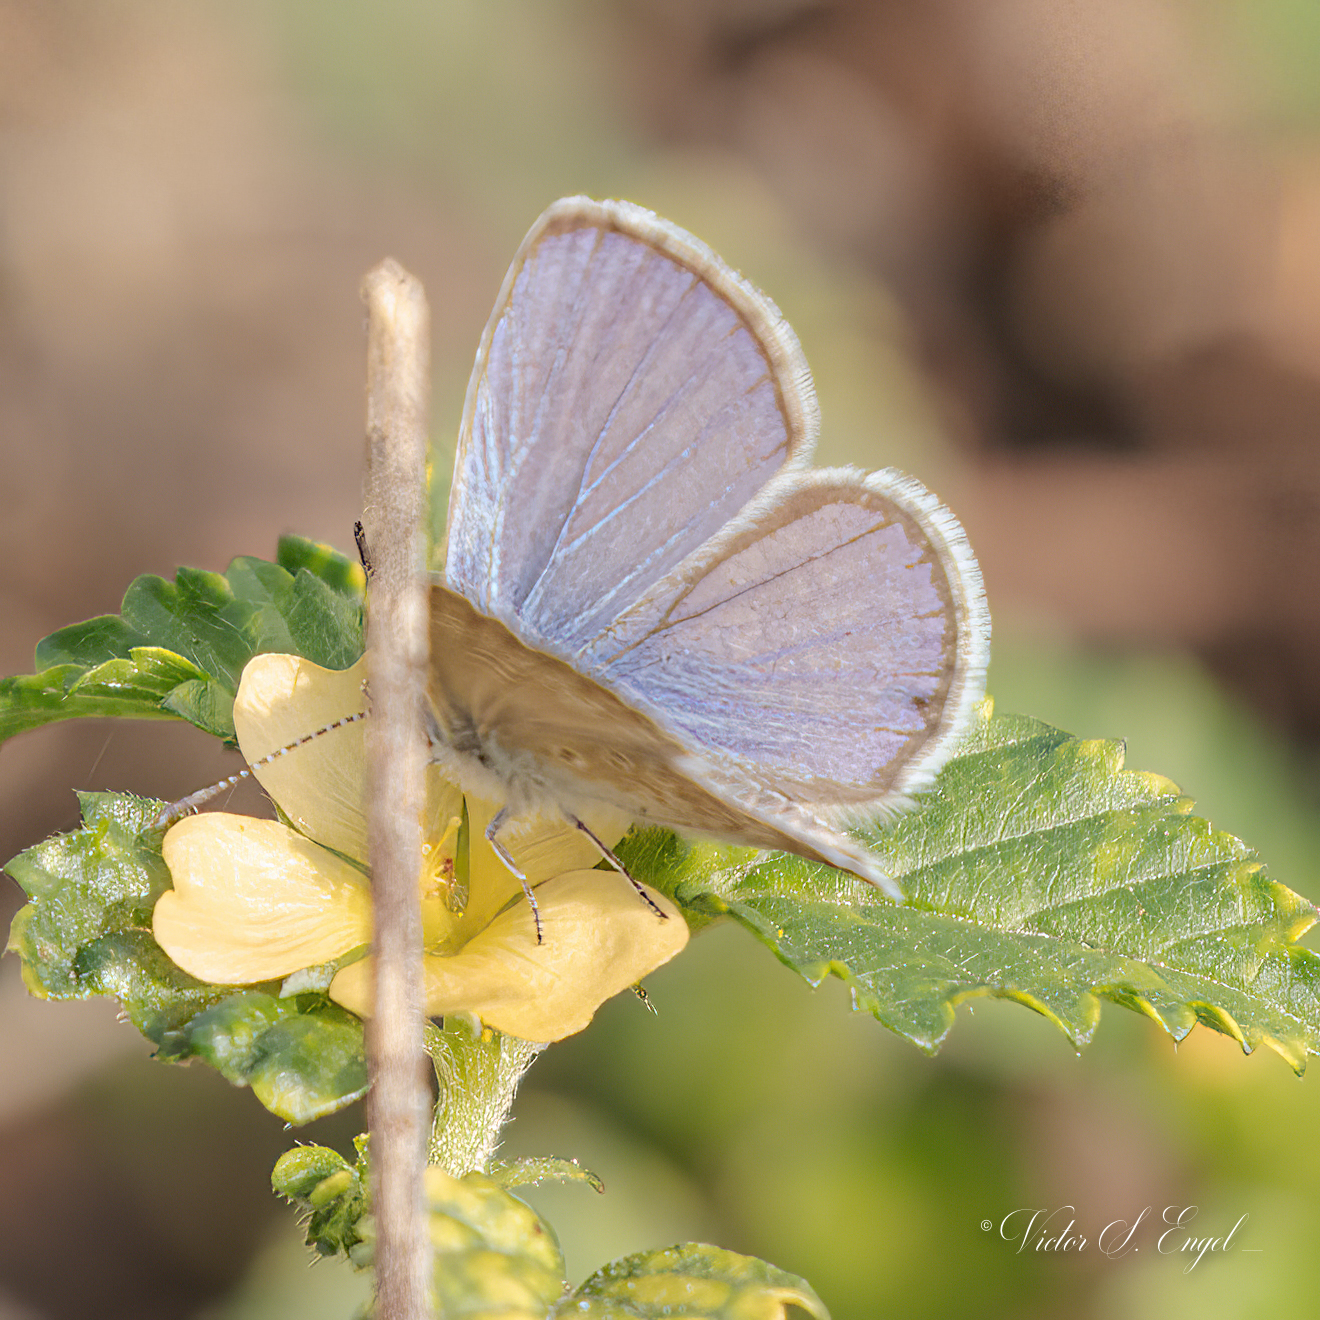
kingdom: Animalia
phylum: Arthropoda
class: Insecta
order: Lepidoptera
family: Lycaenidae
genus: Hemiargus
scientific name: Hemiargus ceraunus
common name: Ceraunus blue
